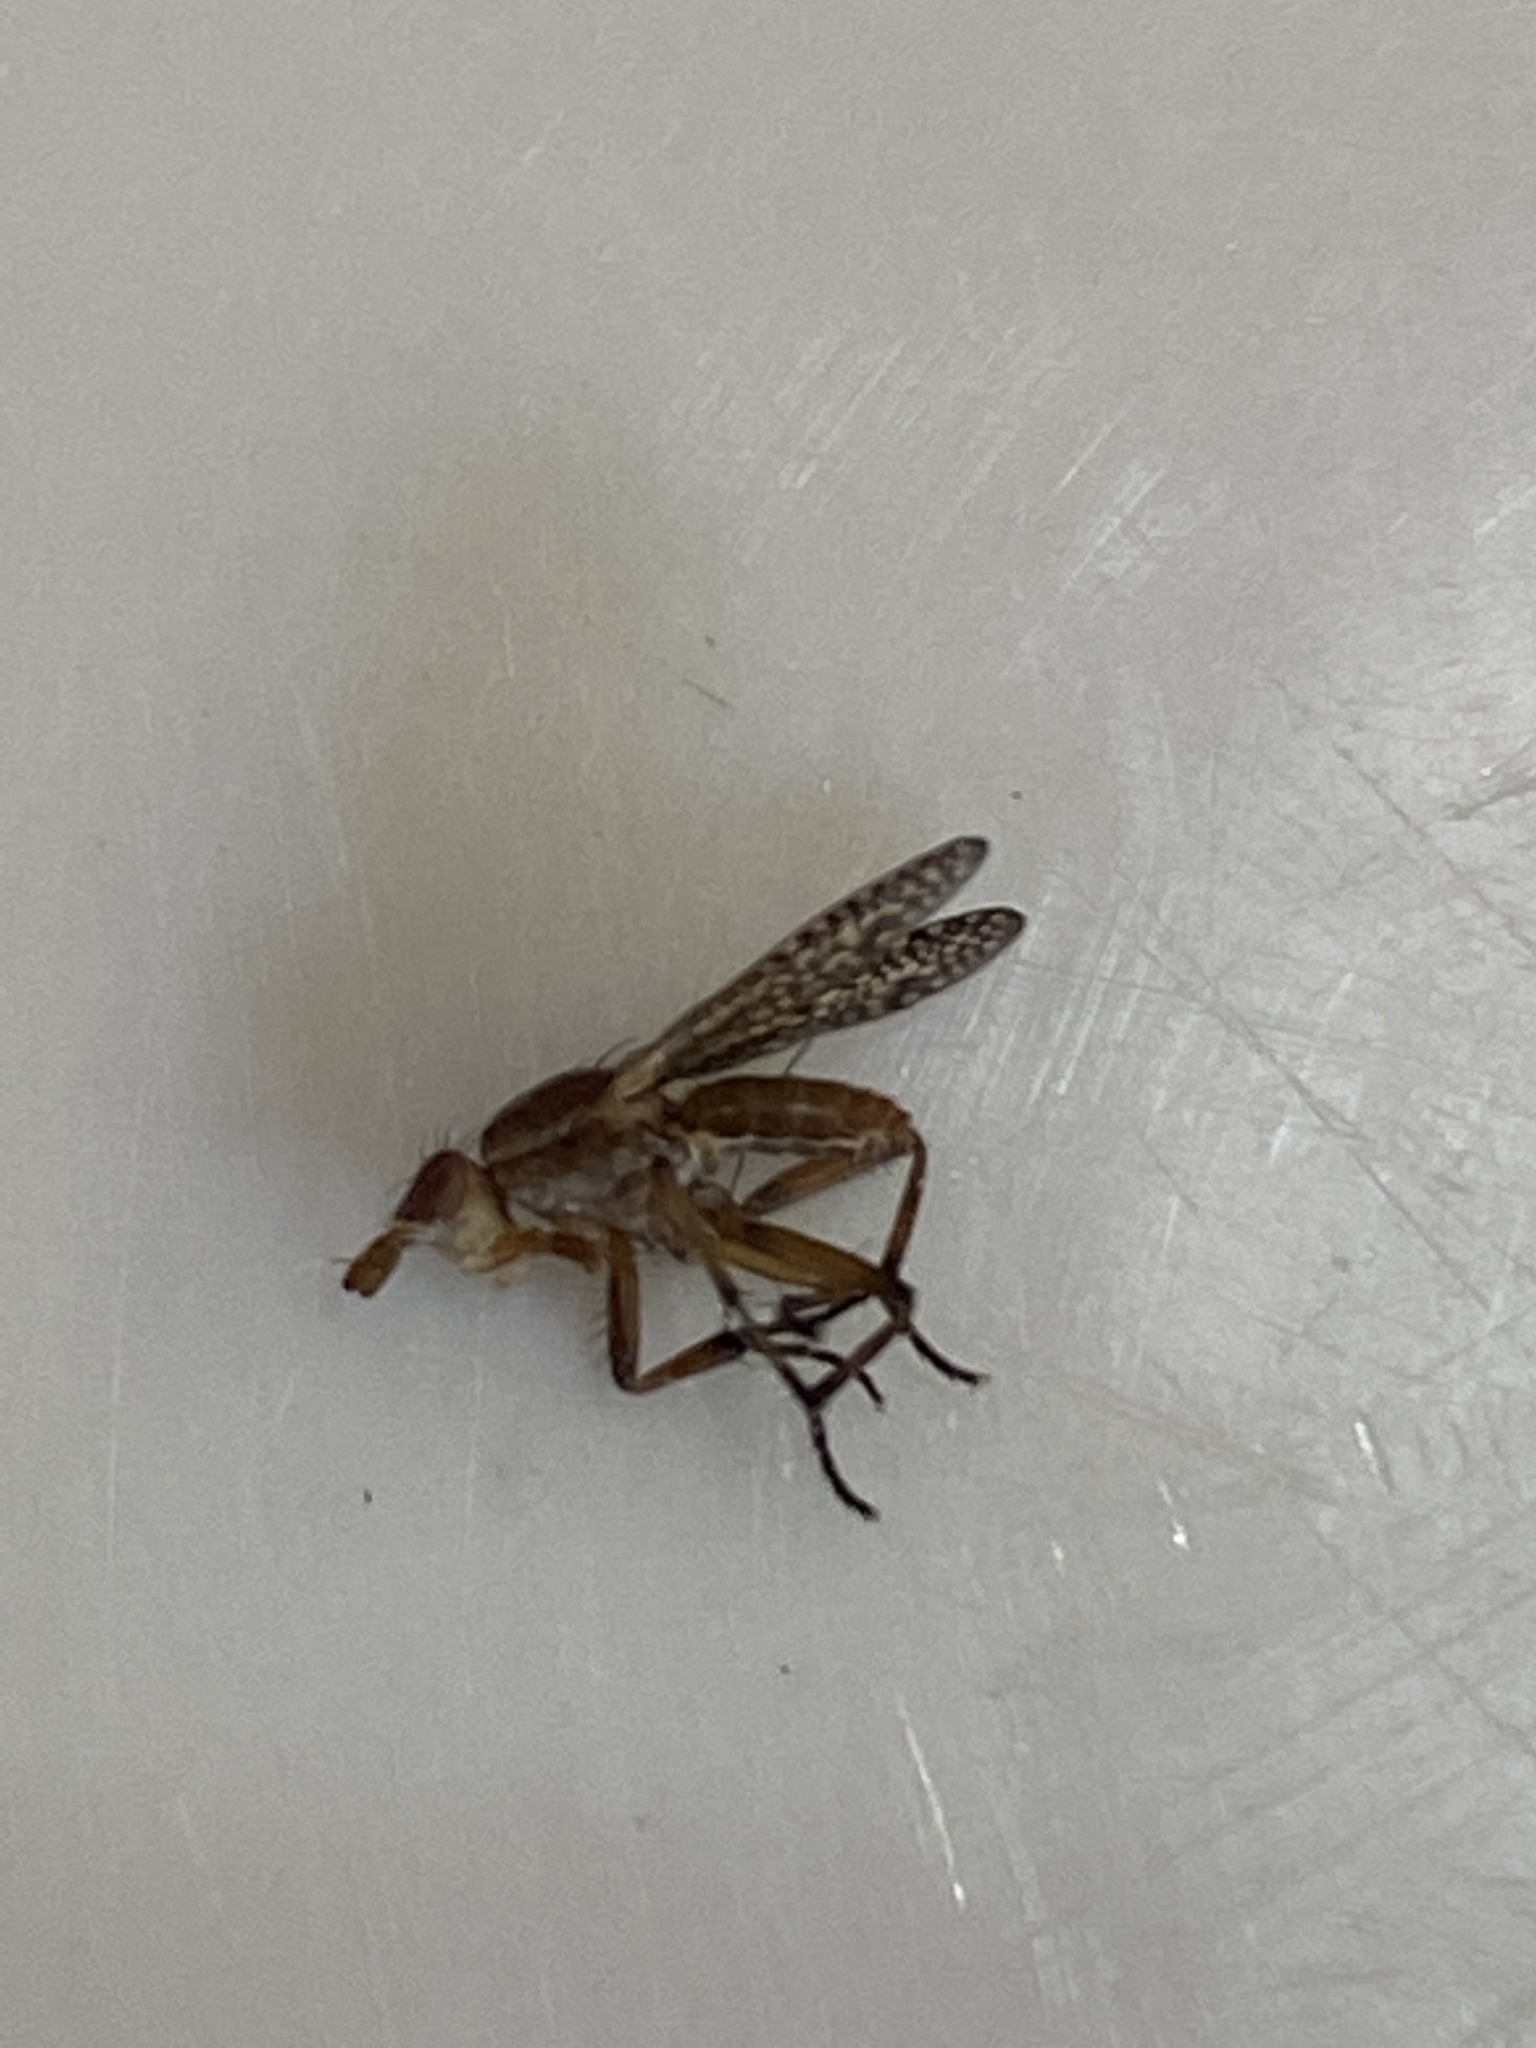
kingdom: Animalia
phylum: Arthropoda
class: Insecta
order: Diptera
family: Sciomyzidae
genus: Ethiolimnia
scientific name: Ethiolimnia geniculata
